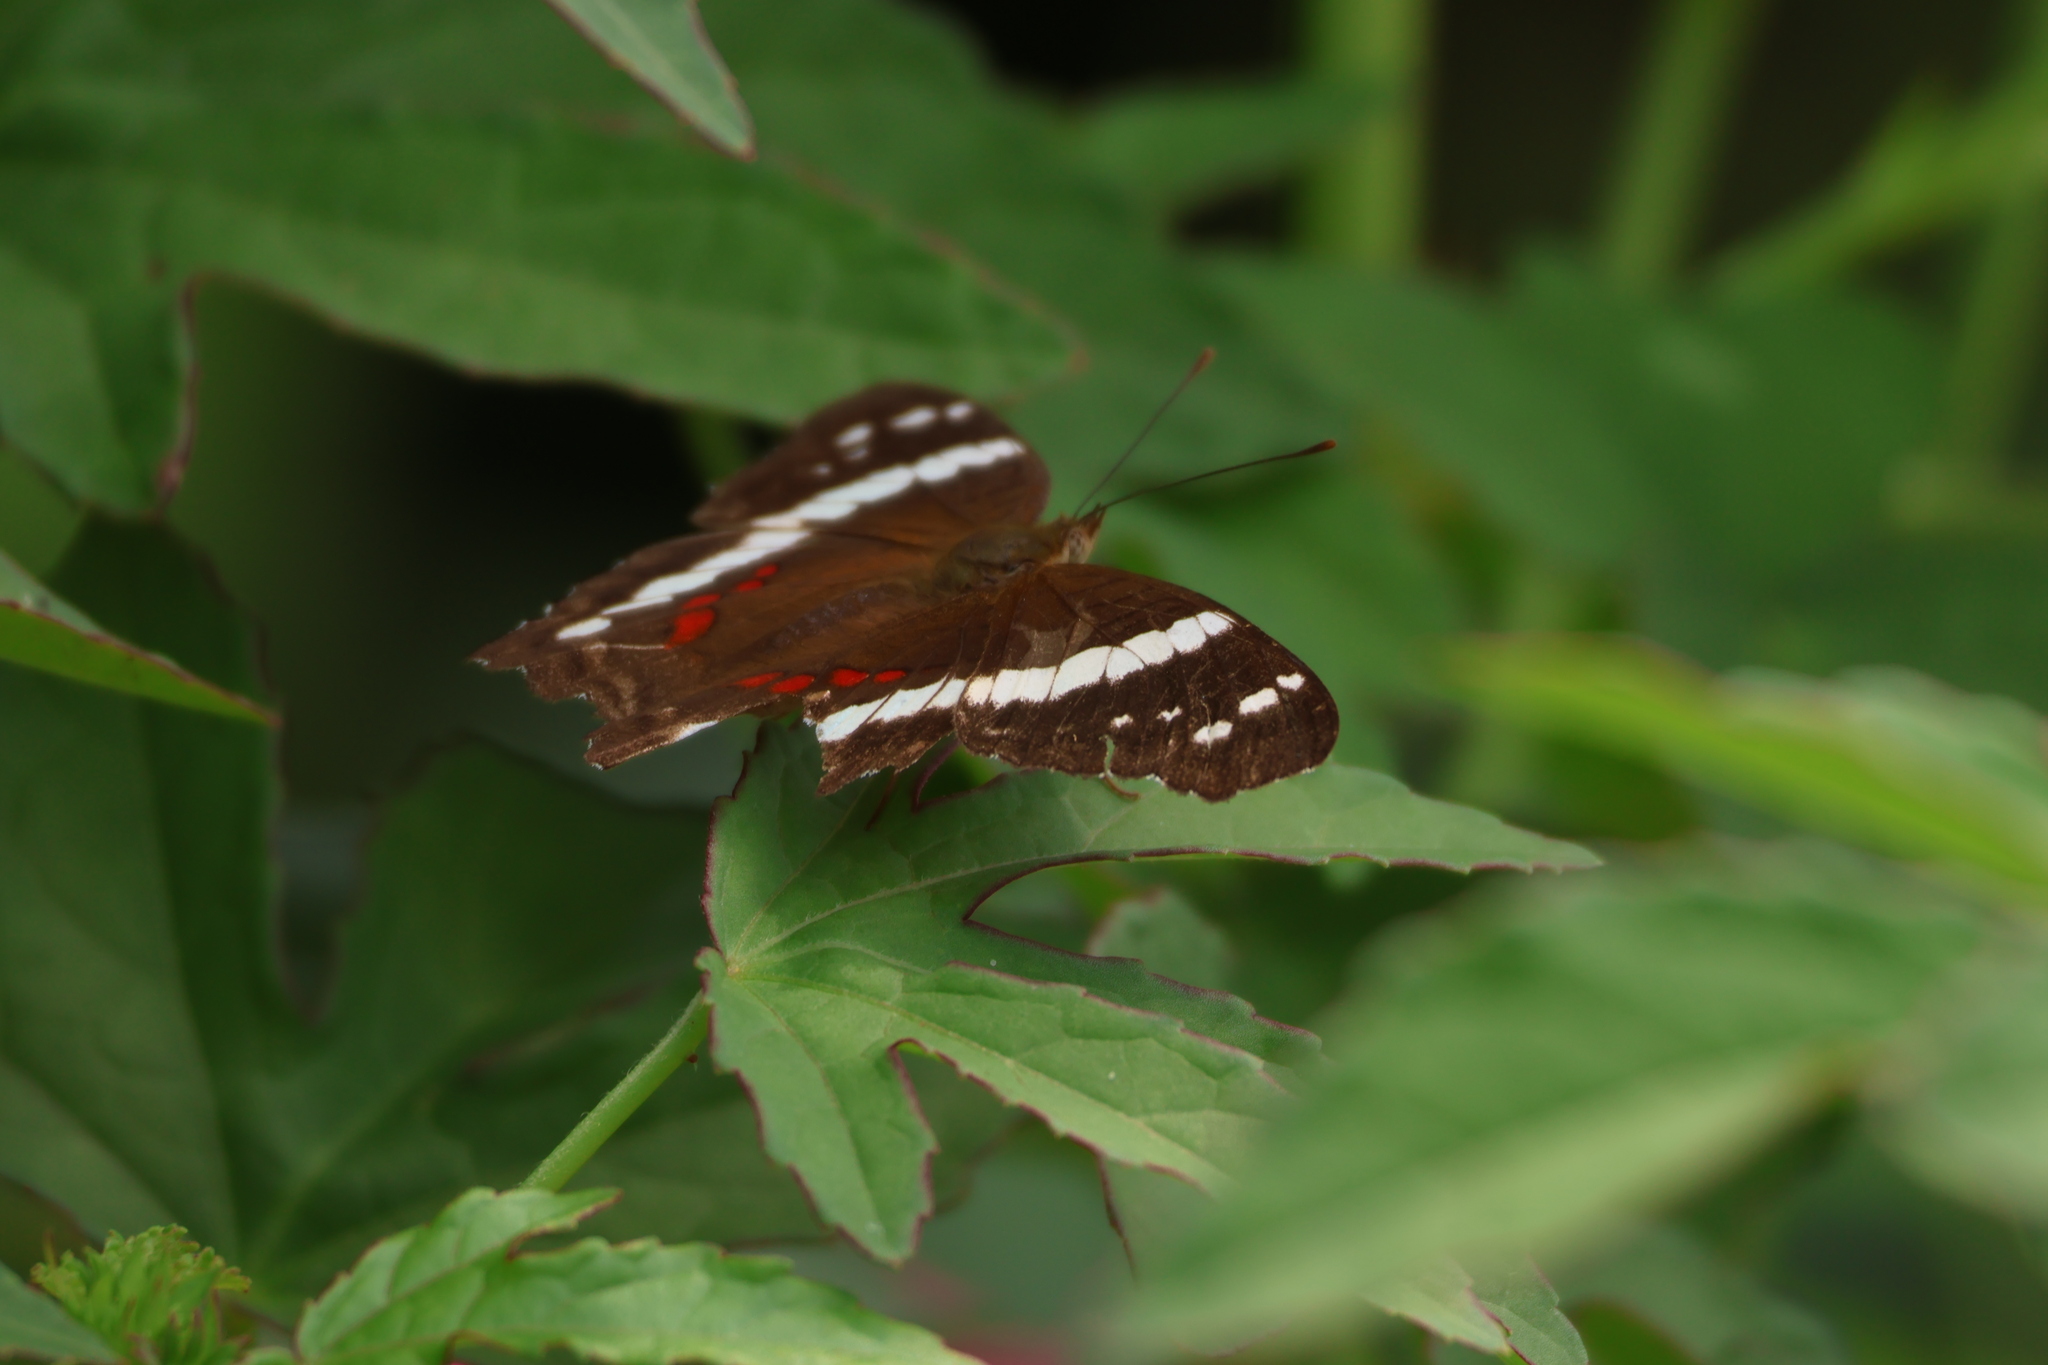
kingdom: Animalia
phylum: Arthropoda
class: Insecta
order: Lepidoptera
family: Nymphalidae
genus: Anartia
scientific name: Anartia fatima
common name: Banded peacock
